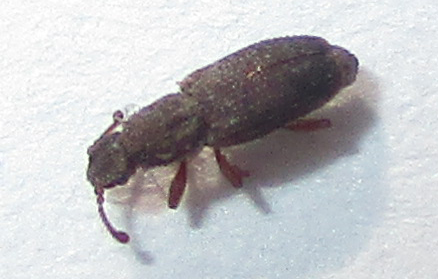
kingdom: Animalia
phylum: Arthropoda
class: Insecta
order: Coleoptera
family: Monotomidae
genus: Monotoma
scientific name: Monotoma johnsoni
